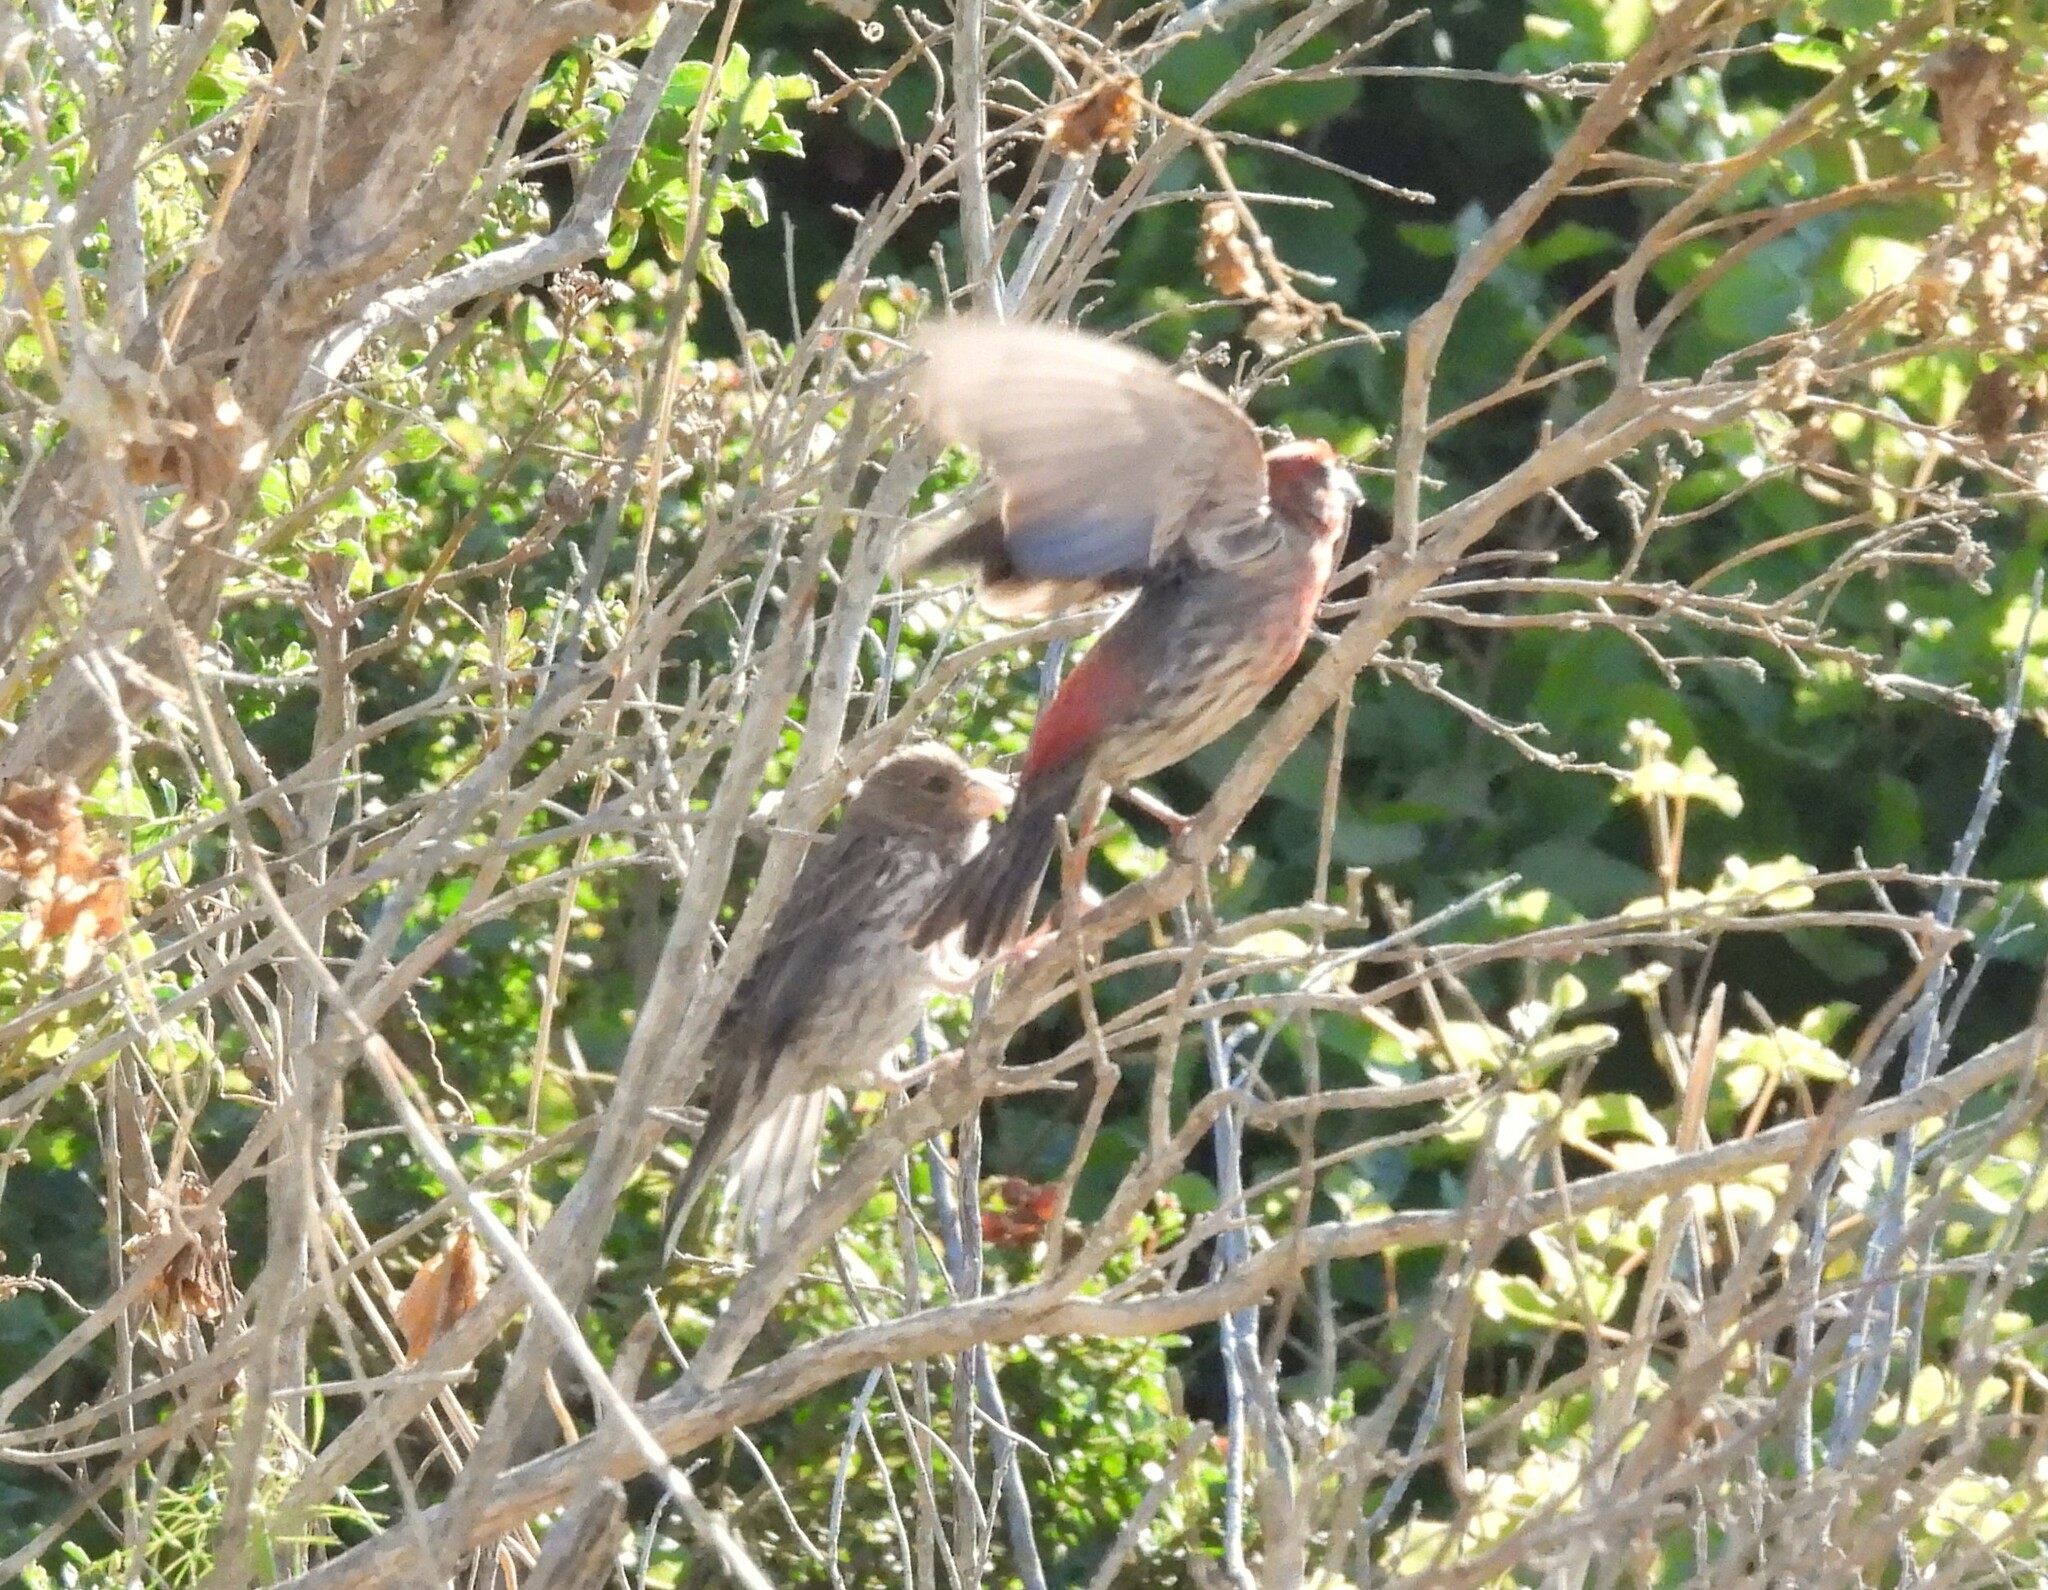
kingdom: Animalia
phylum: Chordata
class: Aves
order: Passeriformes
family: Fringillidae
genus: Haemorhous
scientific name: Haemorhous mexicanus
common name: House finch
